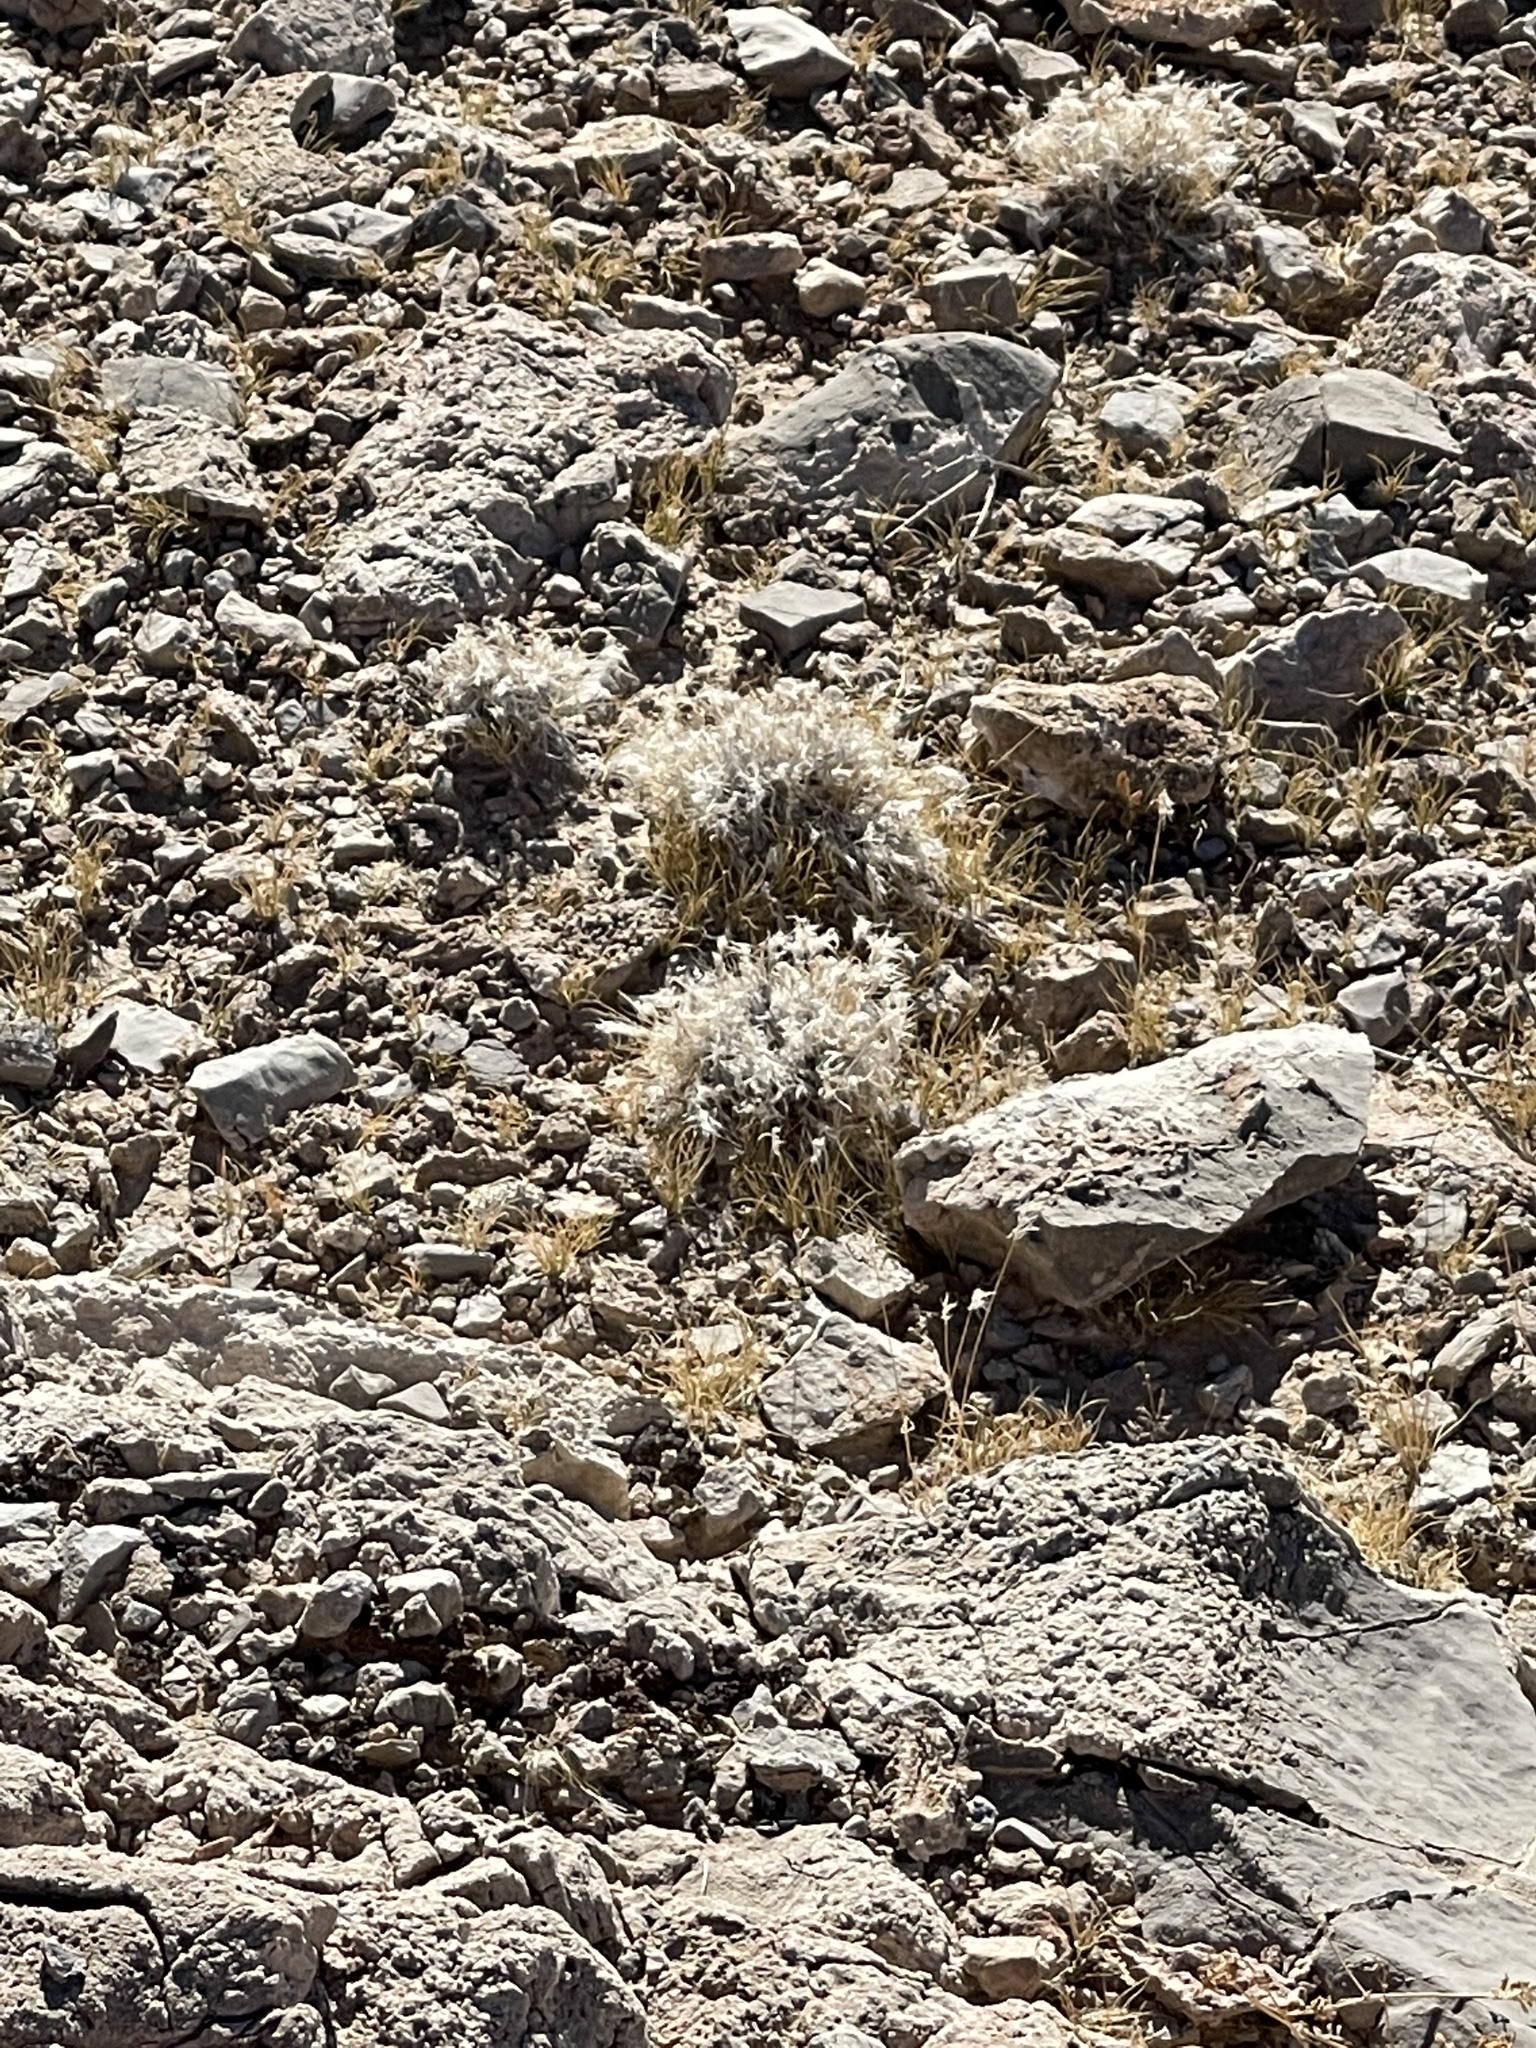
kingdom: Plantae
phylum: Tracheophyta
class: Liliopsida
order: Poales
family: Poaceae
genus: Dasyochloa
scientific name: Dasyochloa pulchella
